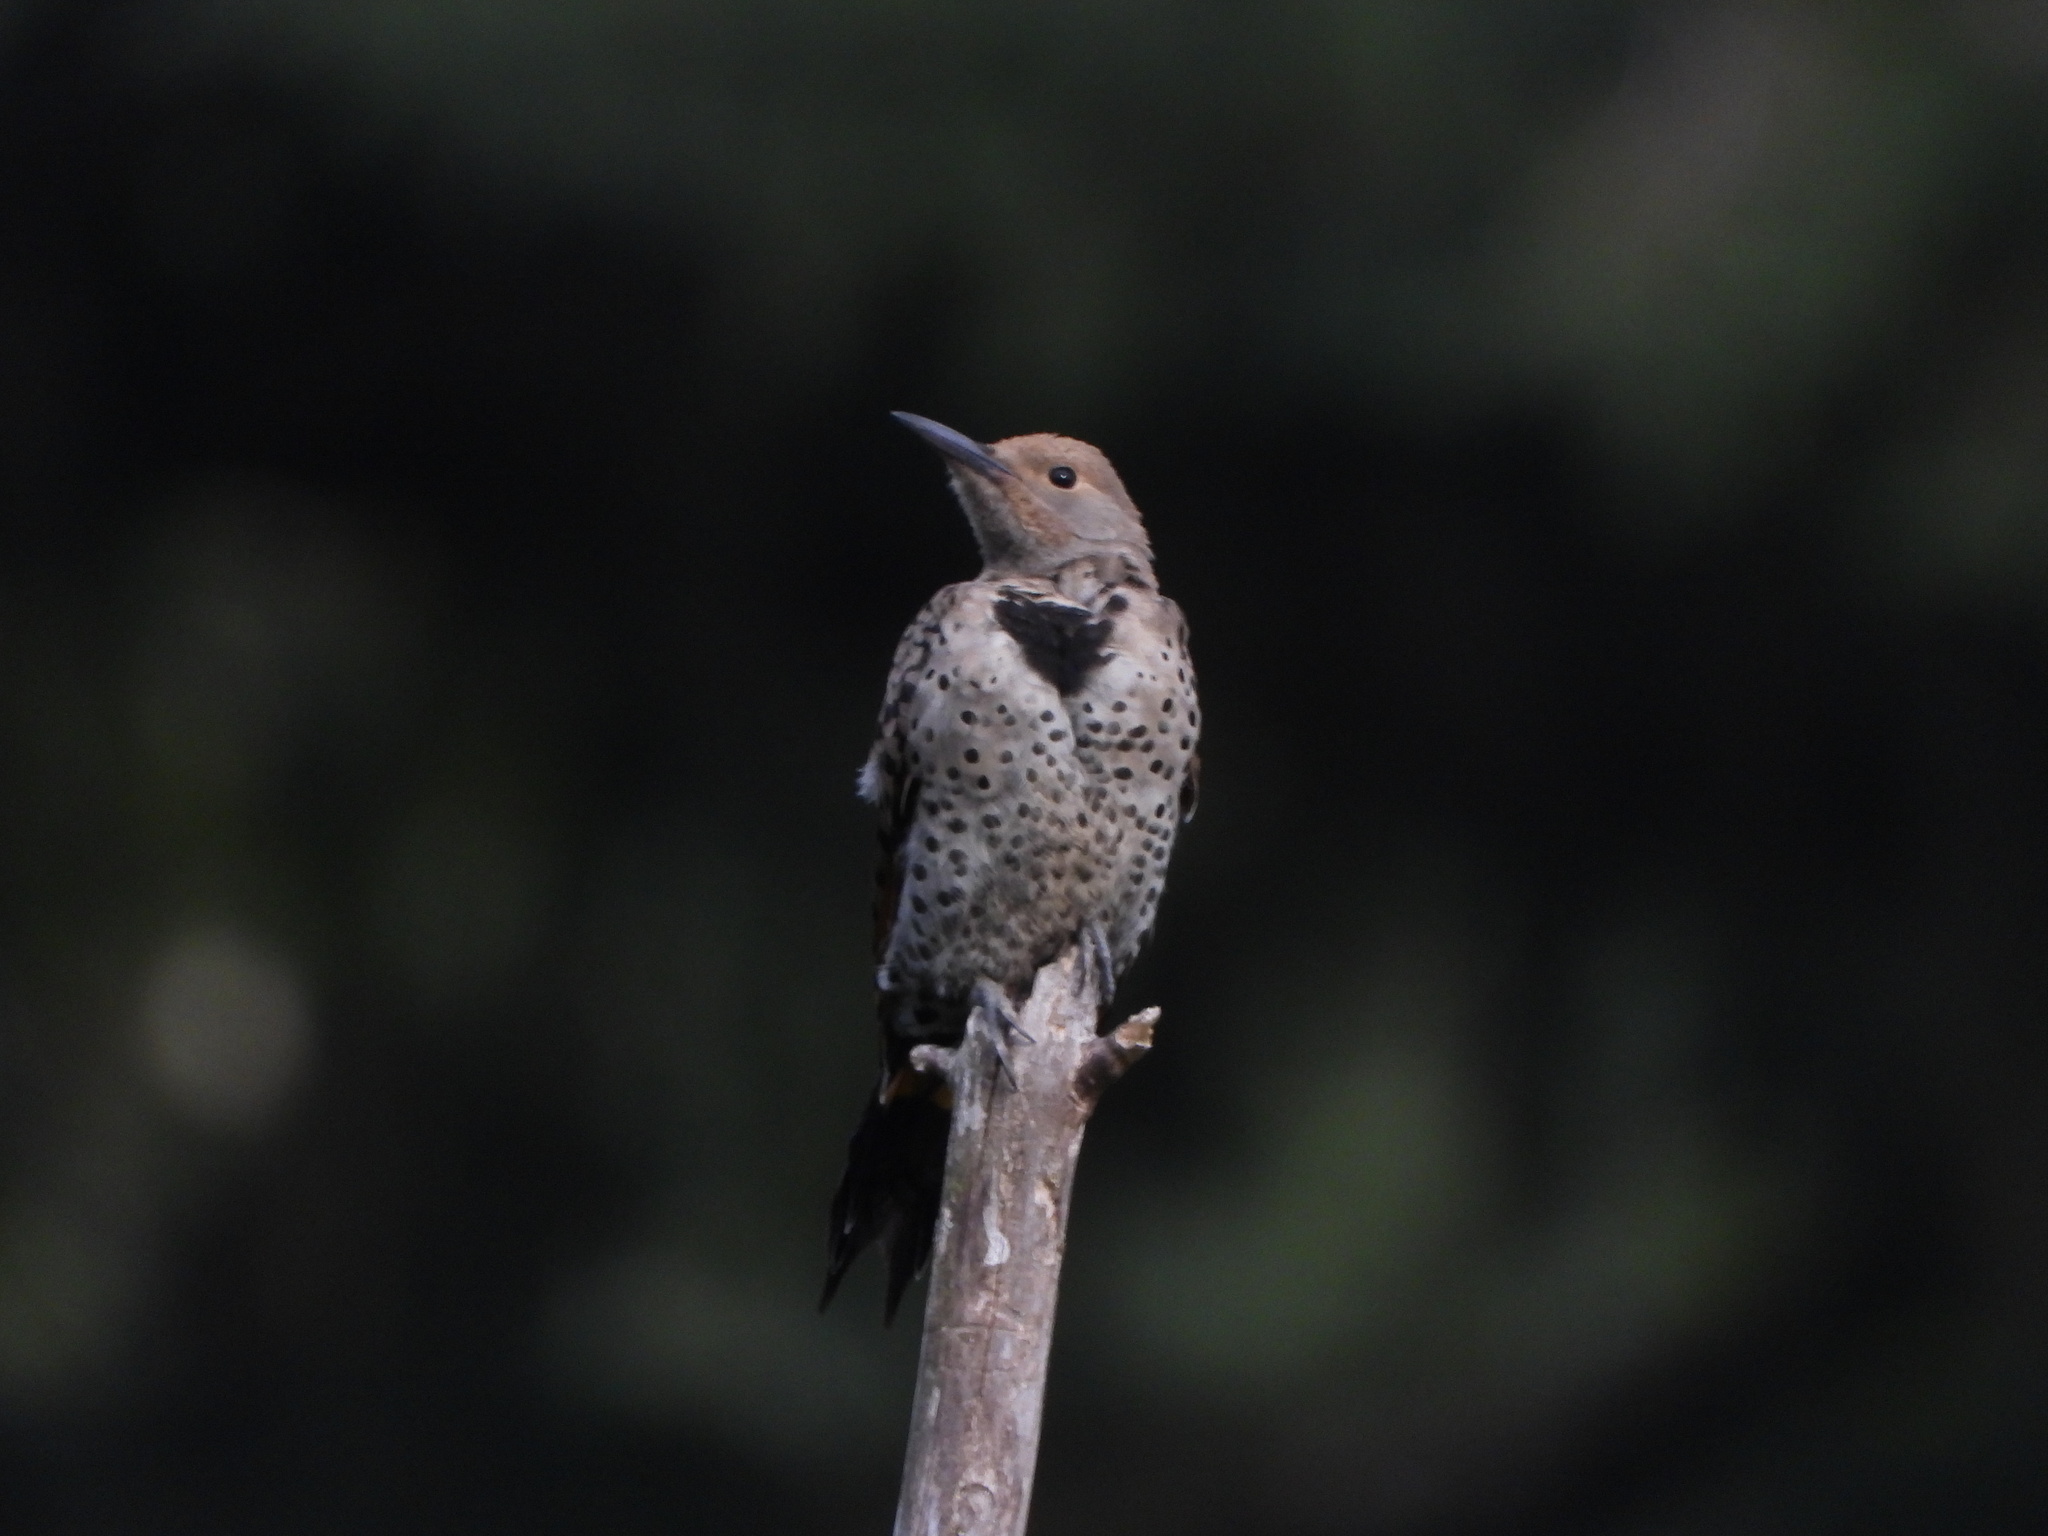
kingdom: Animalia
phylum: Chordata
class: Aves
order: Piciformes
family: Picidae
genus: Colaptes
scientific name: Colaptes auratus
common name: Northern flicker
